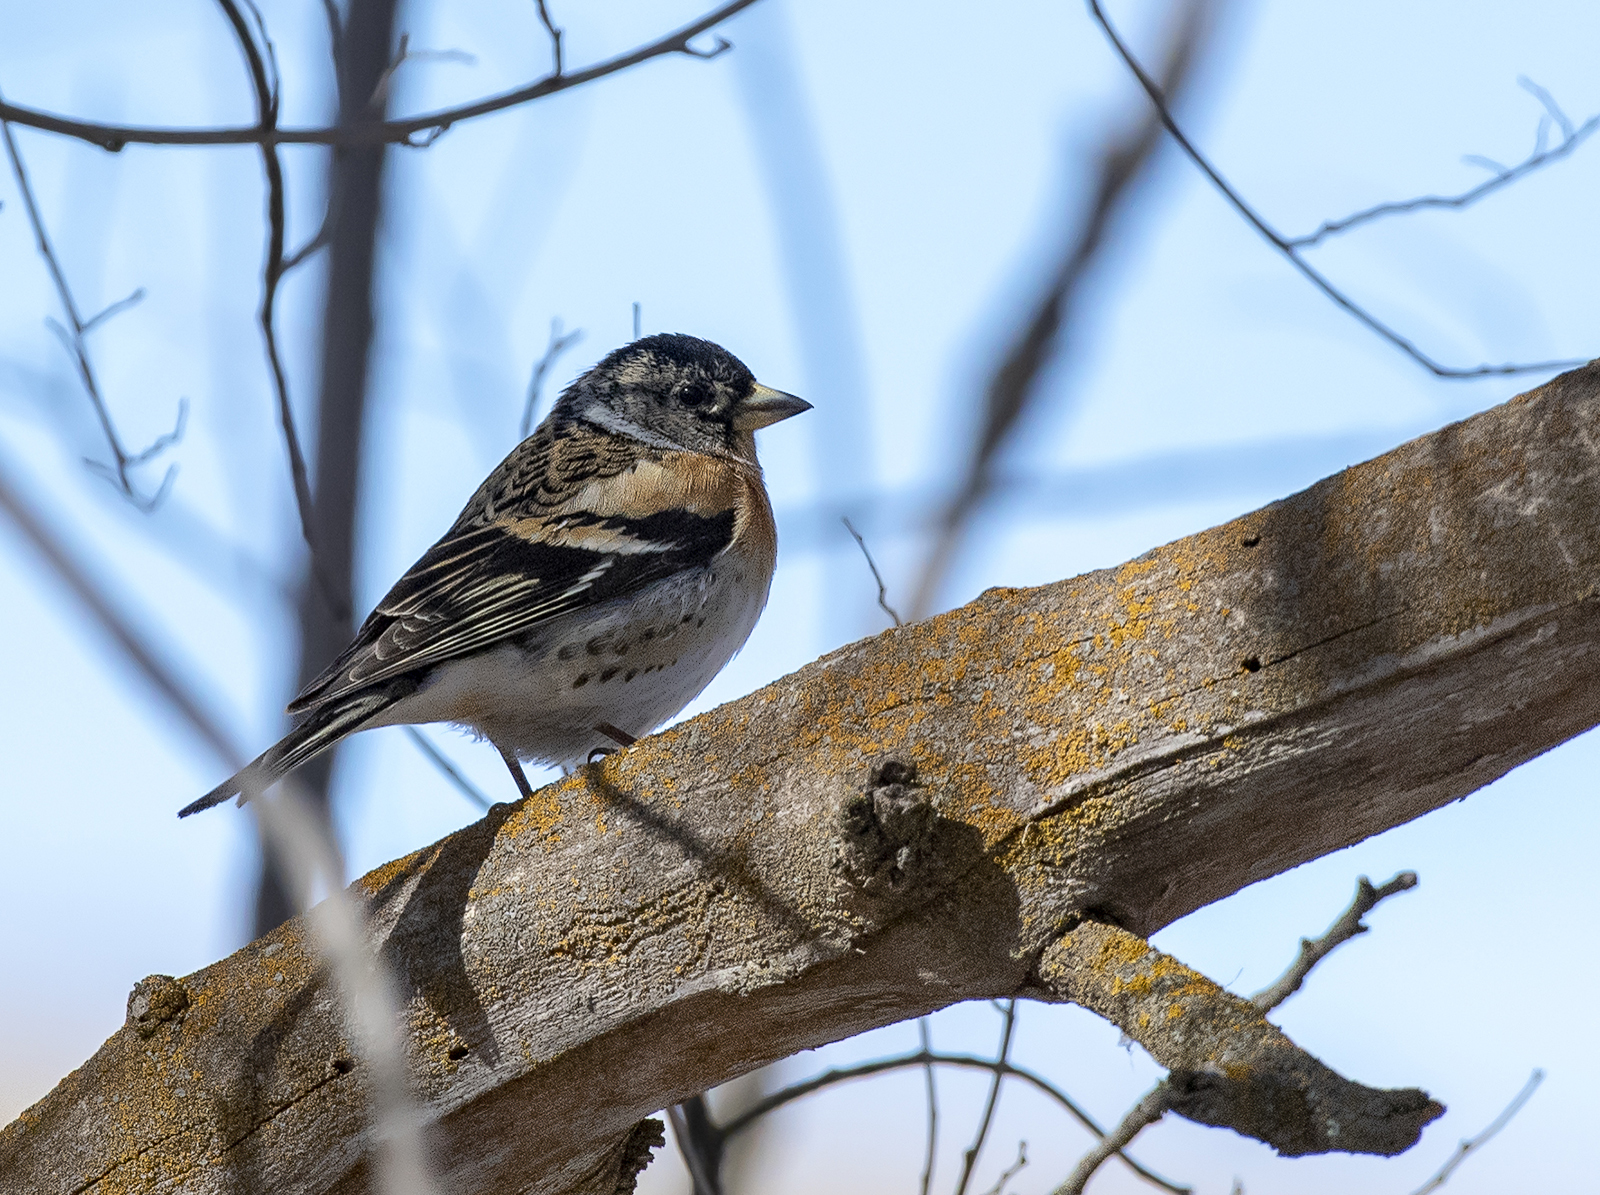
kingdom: Animalia
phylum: Chordata
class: Aves
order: Passeriformes
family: Fringillidae
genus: Fringilla
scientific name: Fringilla montifringilla
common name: Brambling
